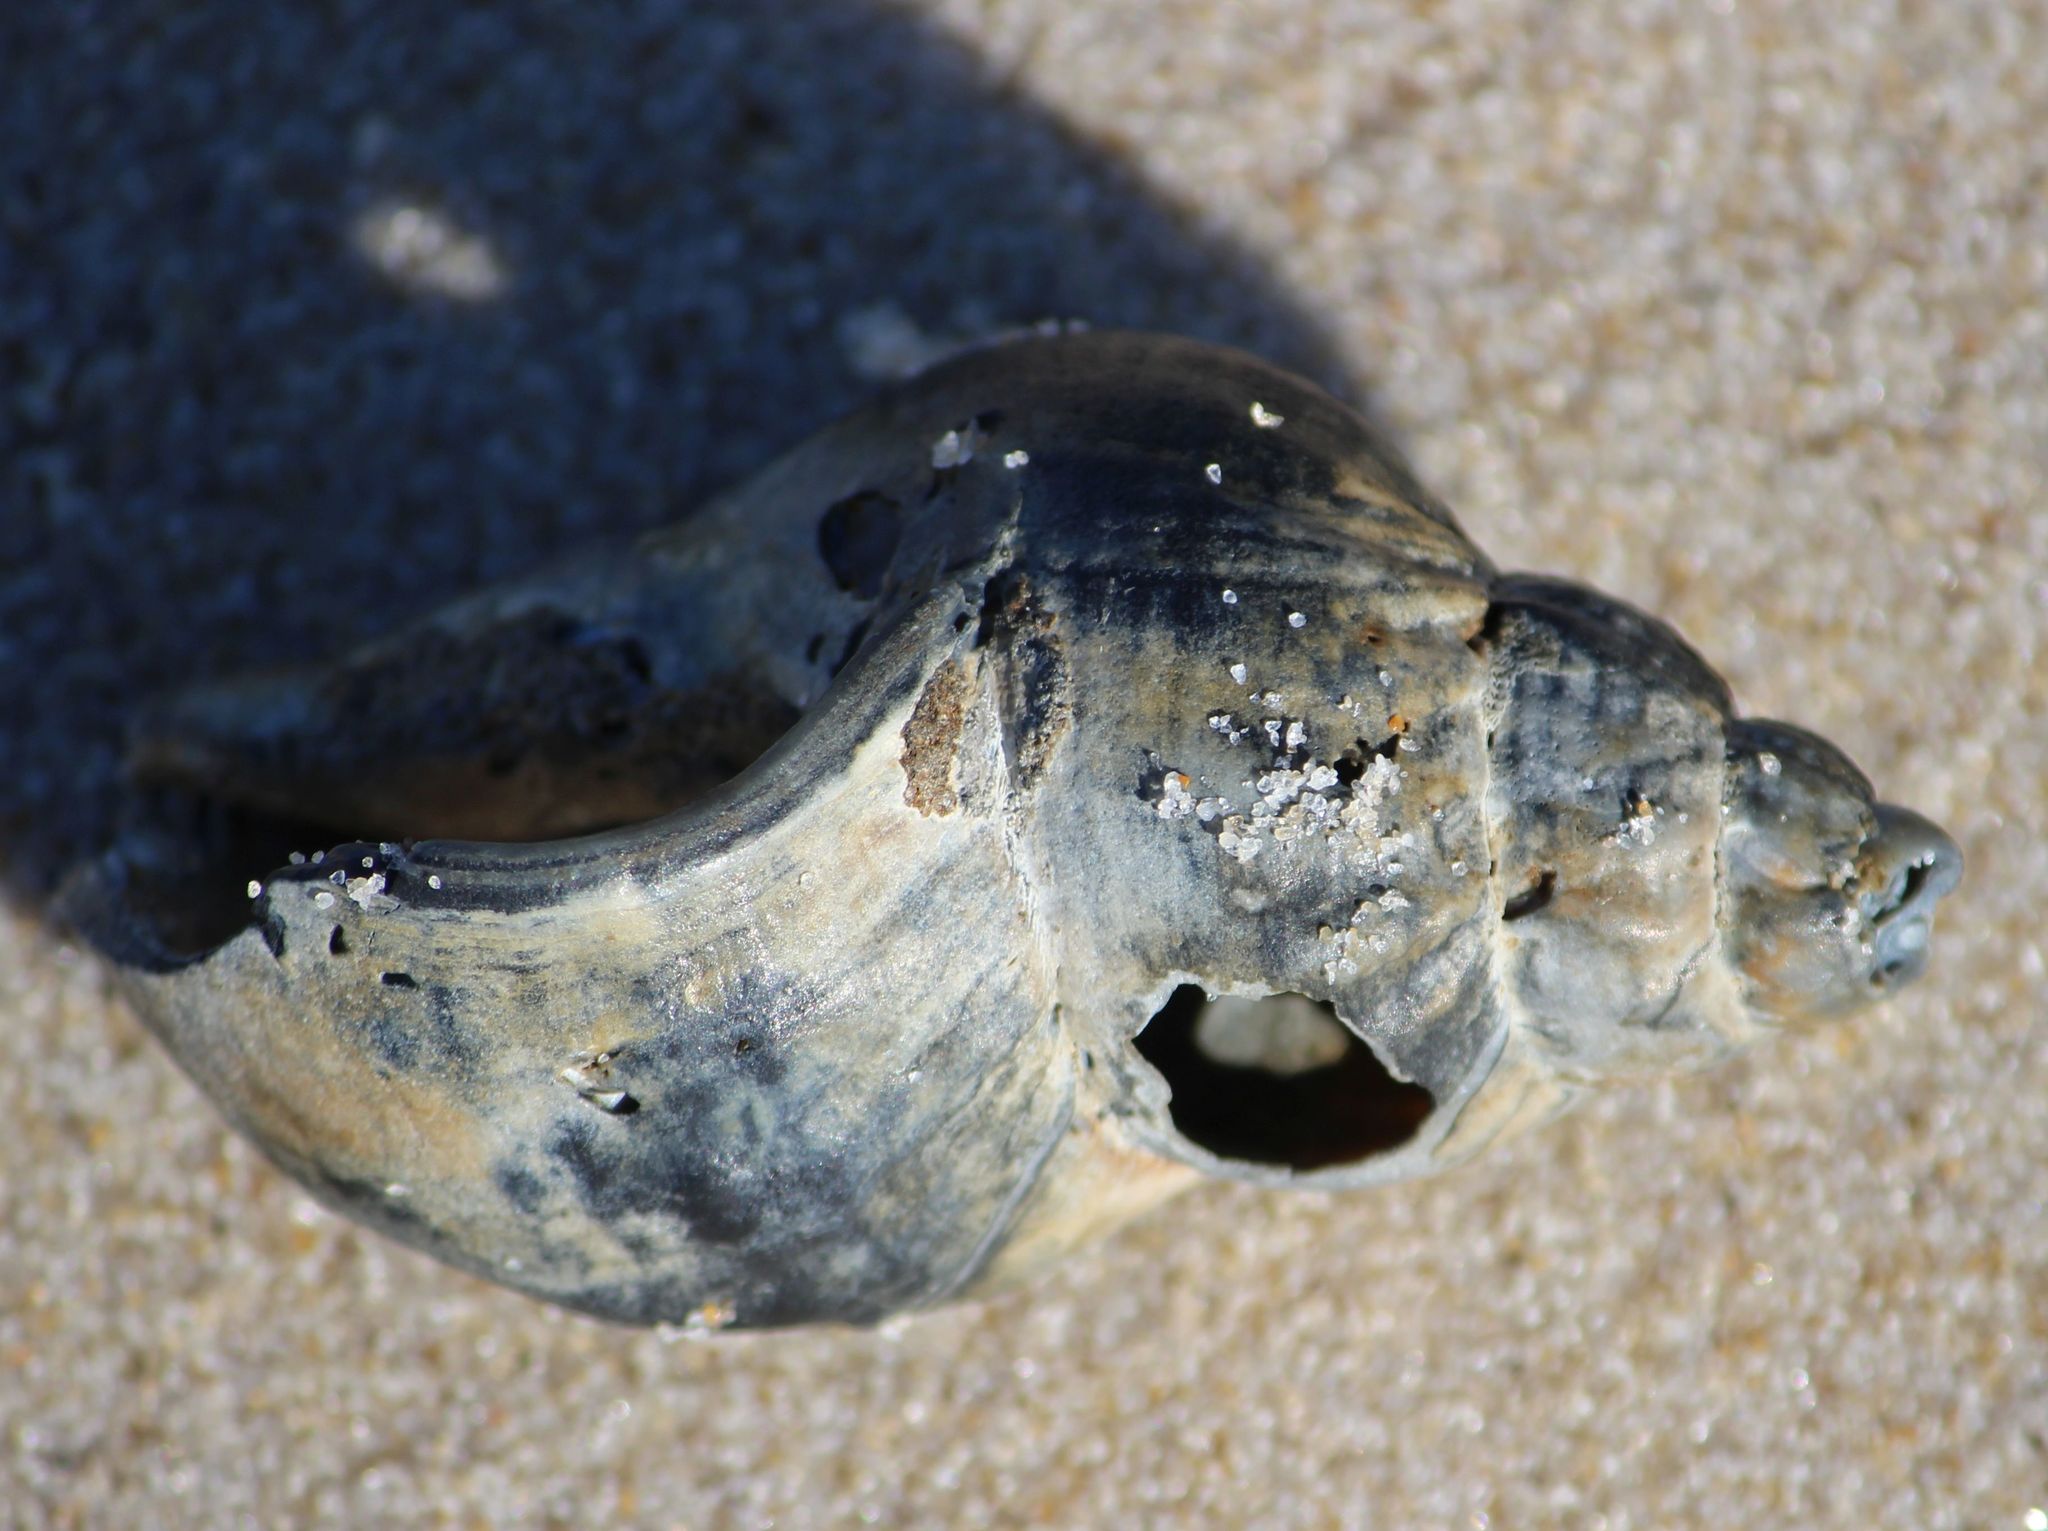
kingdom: Animalia
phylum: Mollusca
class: Gastropoda
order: Neogastropoda
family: Buccinidae
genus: Buccinum
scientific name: Buccinum undatum
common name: Common whelk
